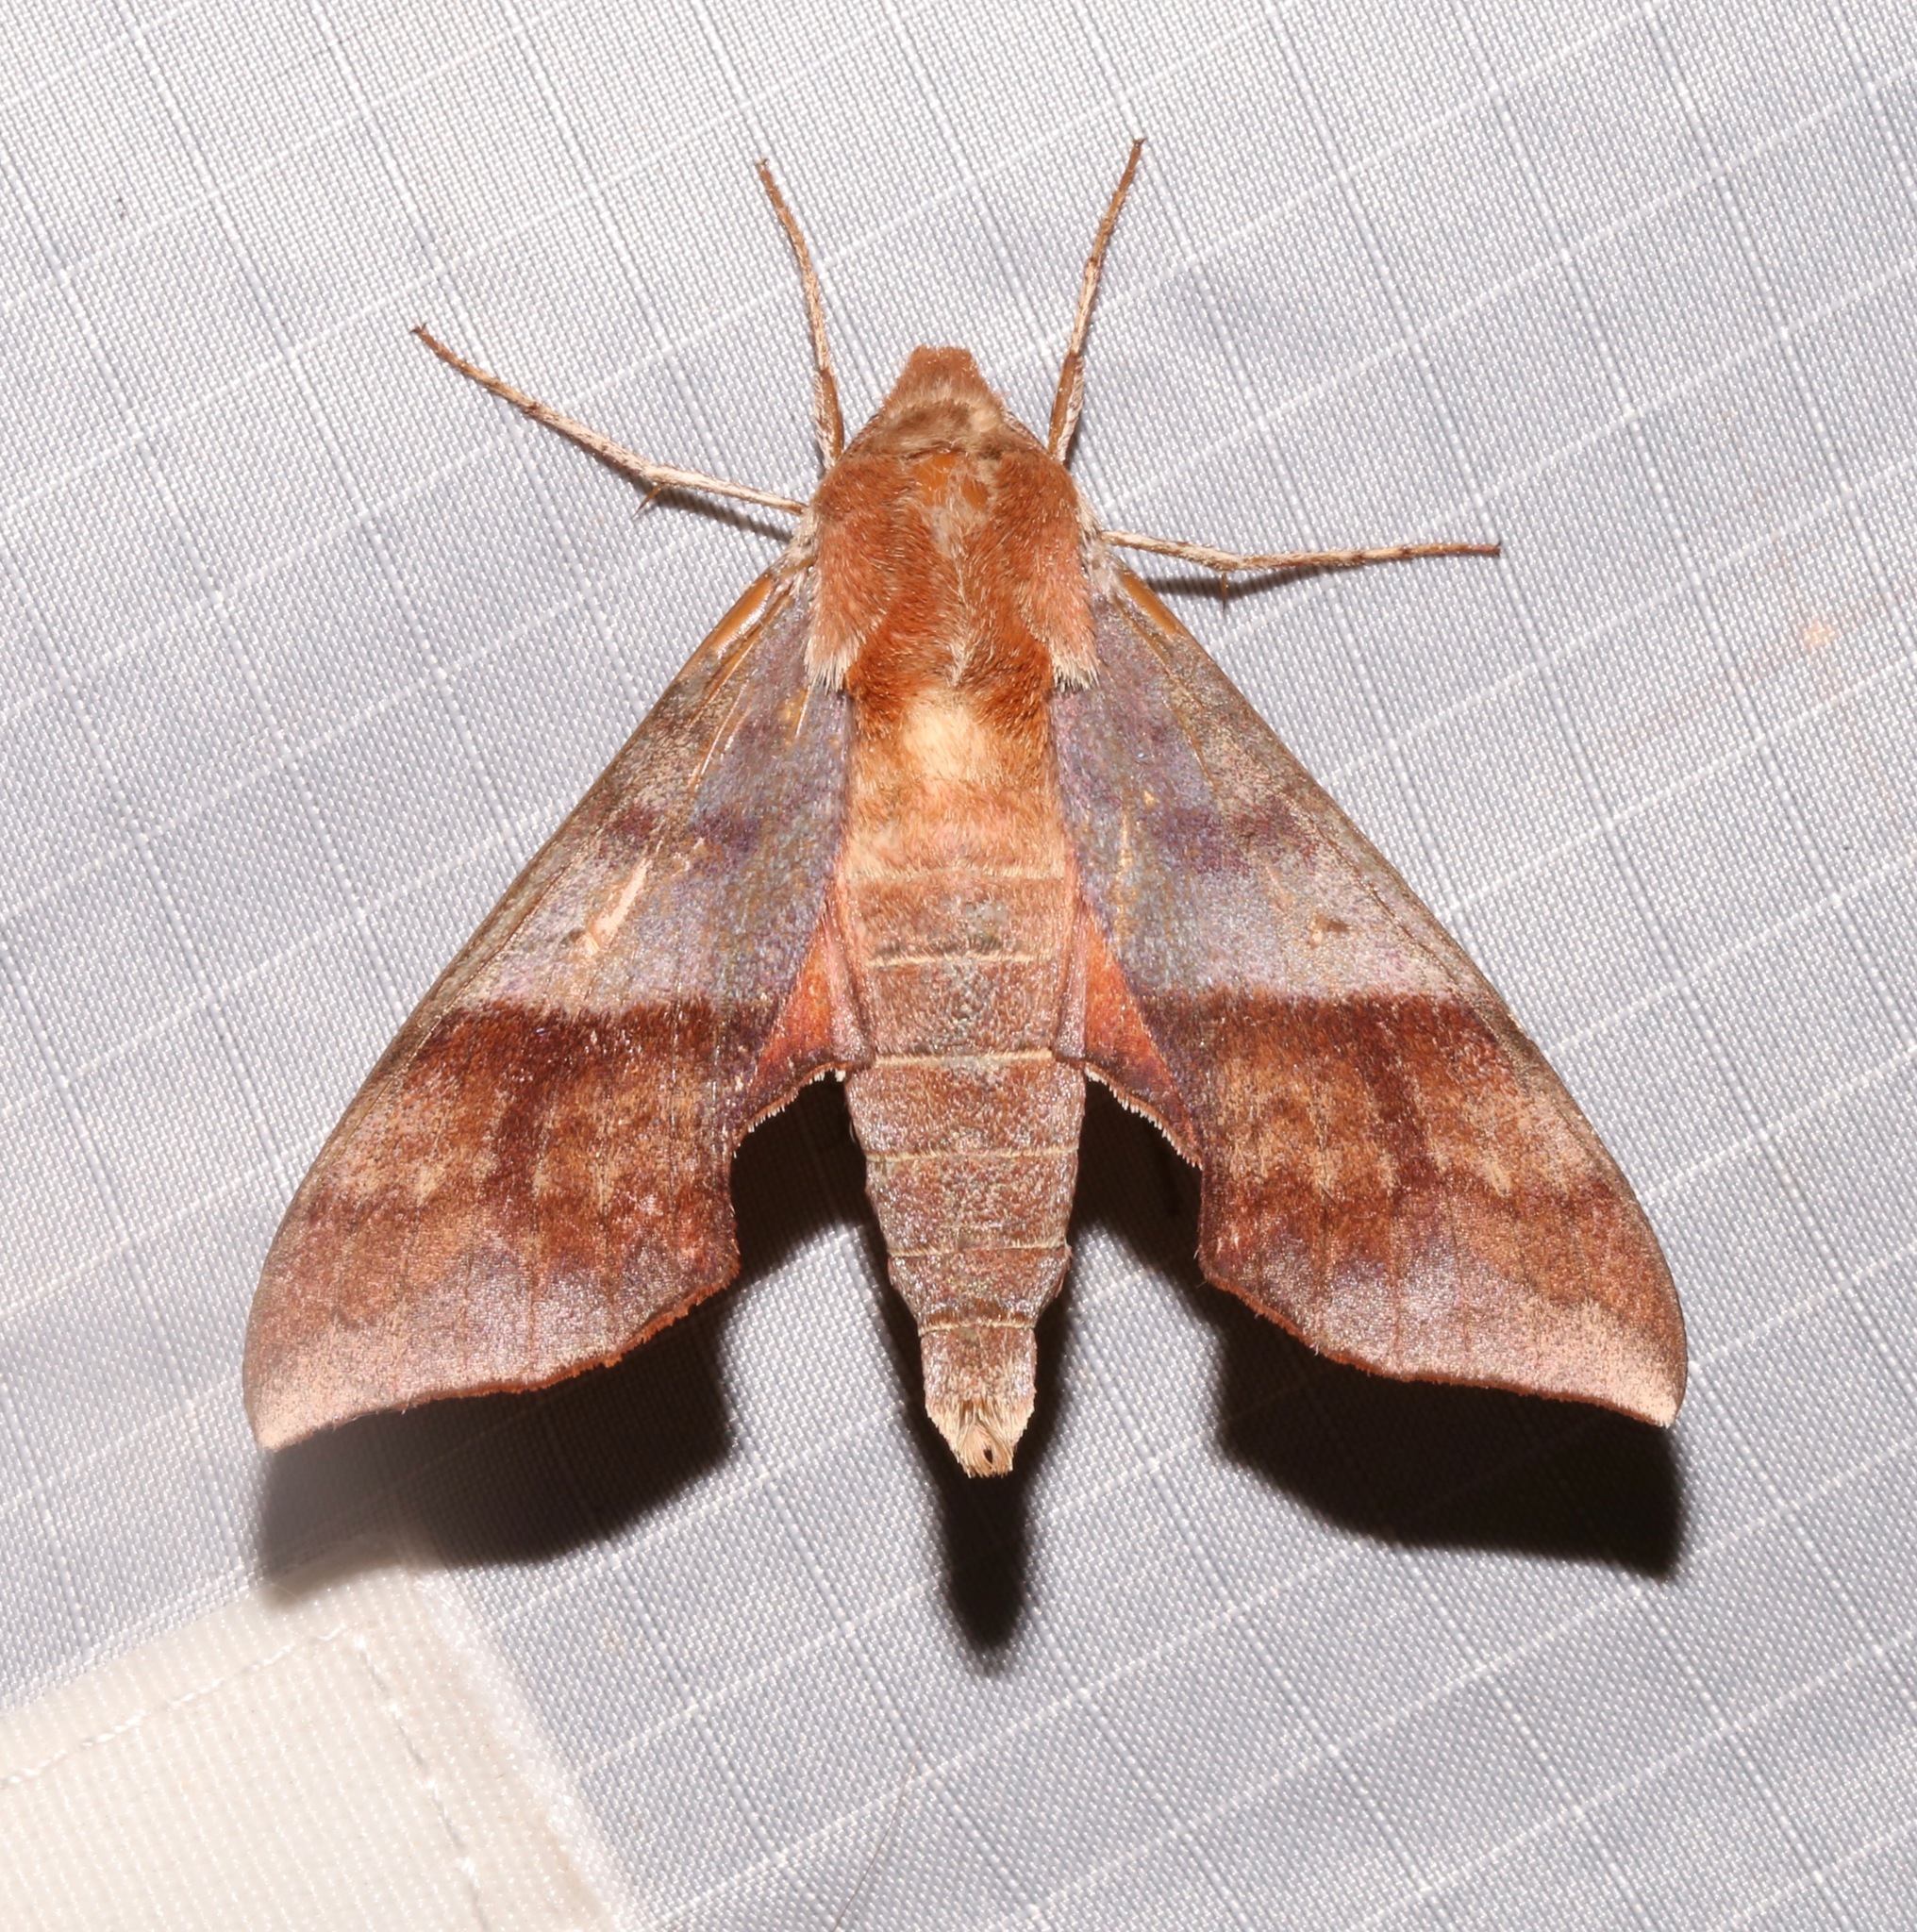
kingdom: Animalia
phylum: Arthropoda
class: Insecta
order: Lepidoptera
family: Sphingidae
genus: Darapsa
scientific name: Darapsa choerilus
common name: Azalea sphinx
